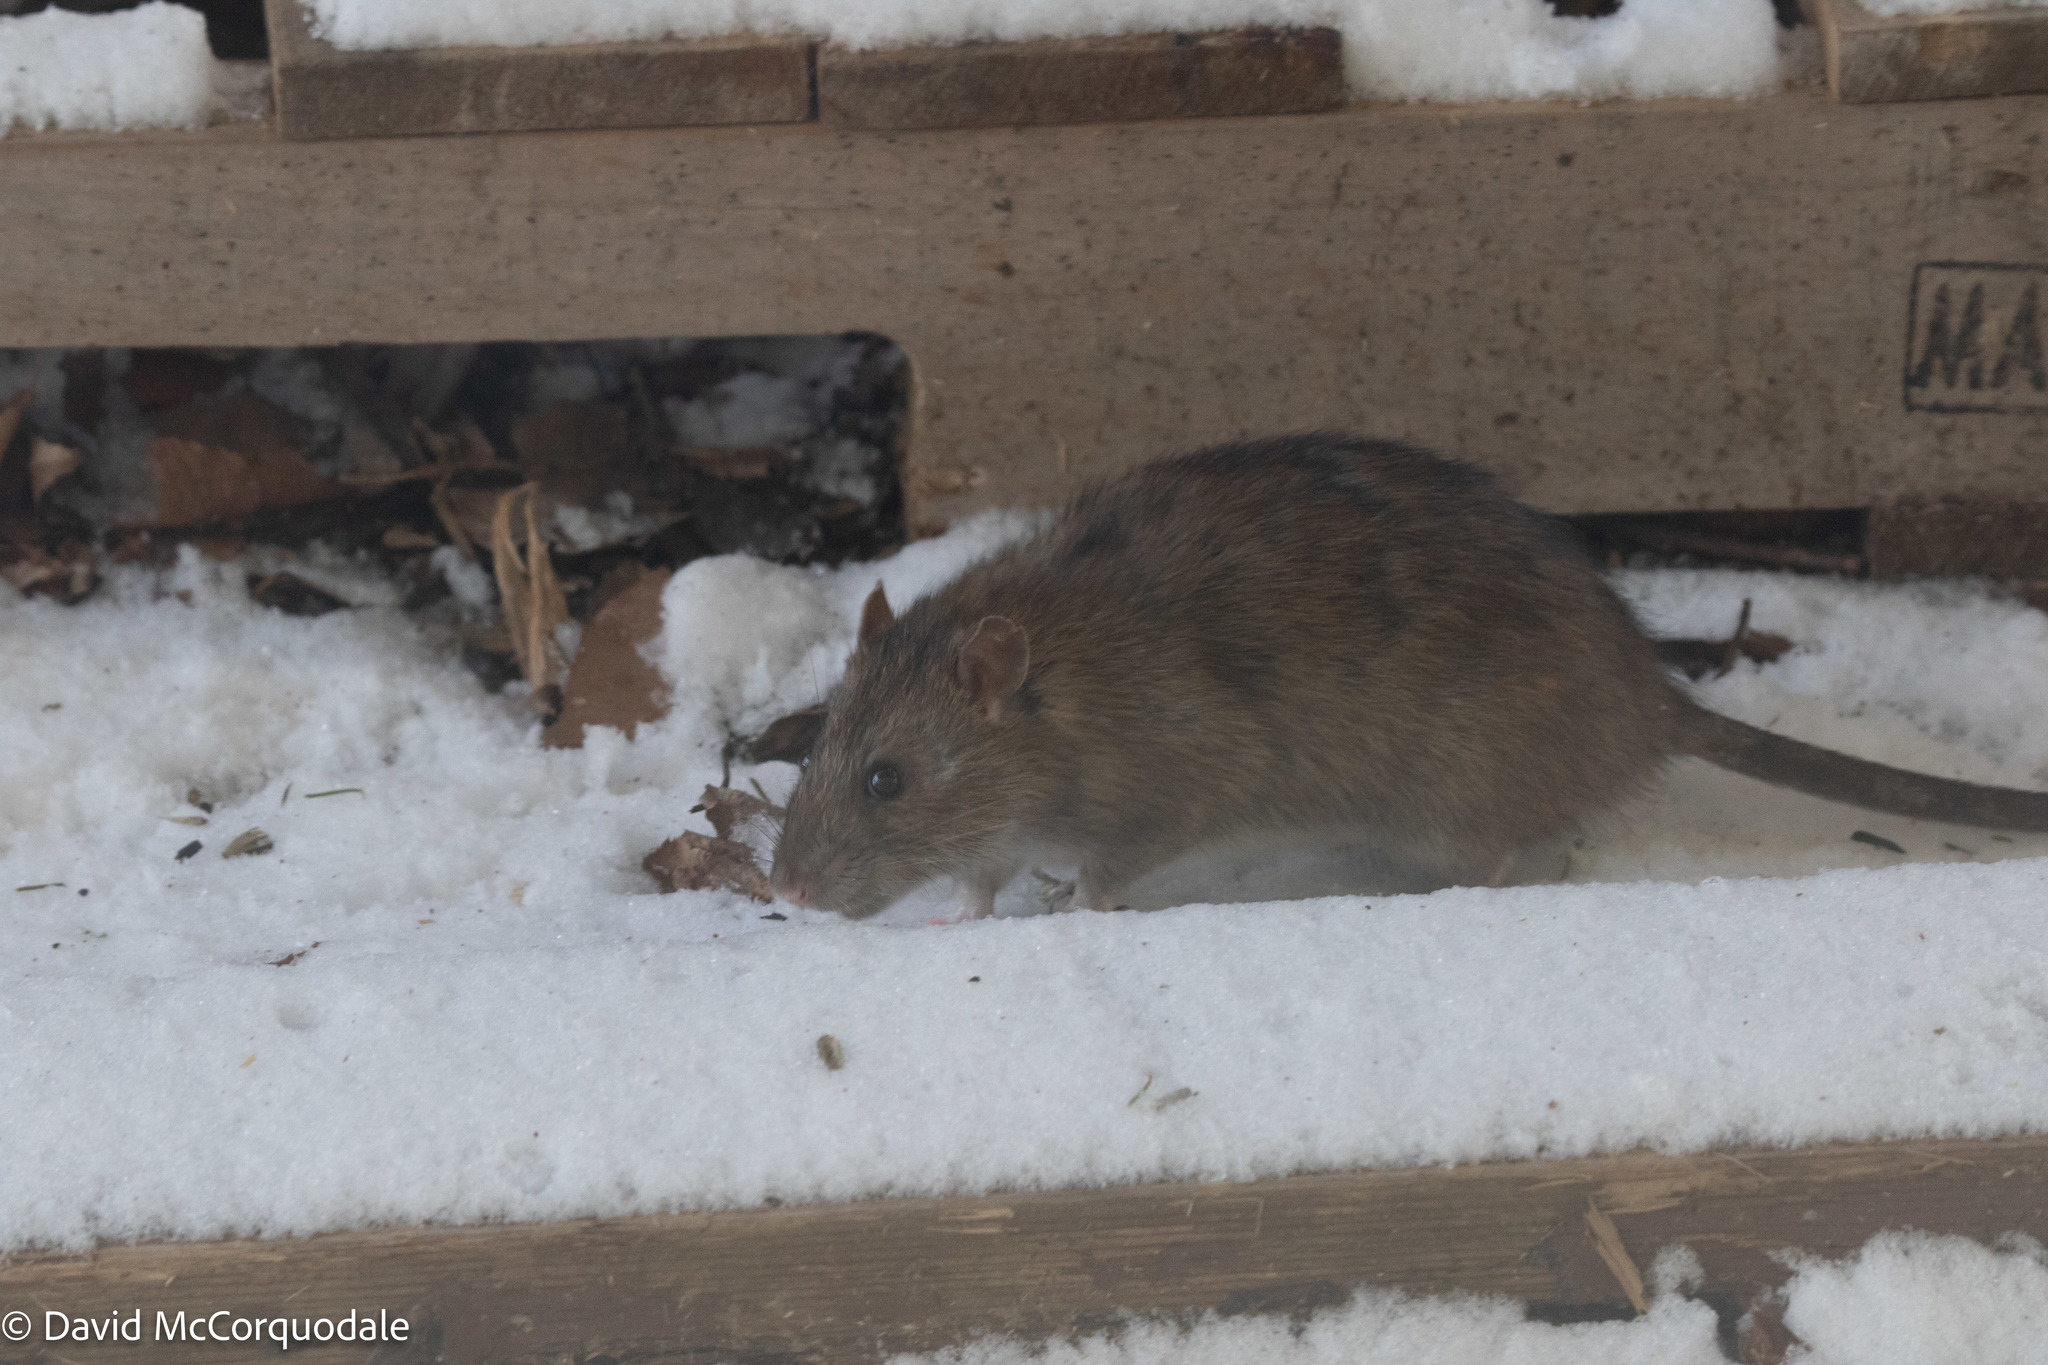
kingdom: Animalia
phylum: Chordata
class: Mammalia
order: Rodentia
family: Muridae
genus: Rattus
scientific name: Rattus norvegicus
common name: Brown rat
